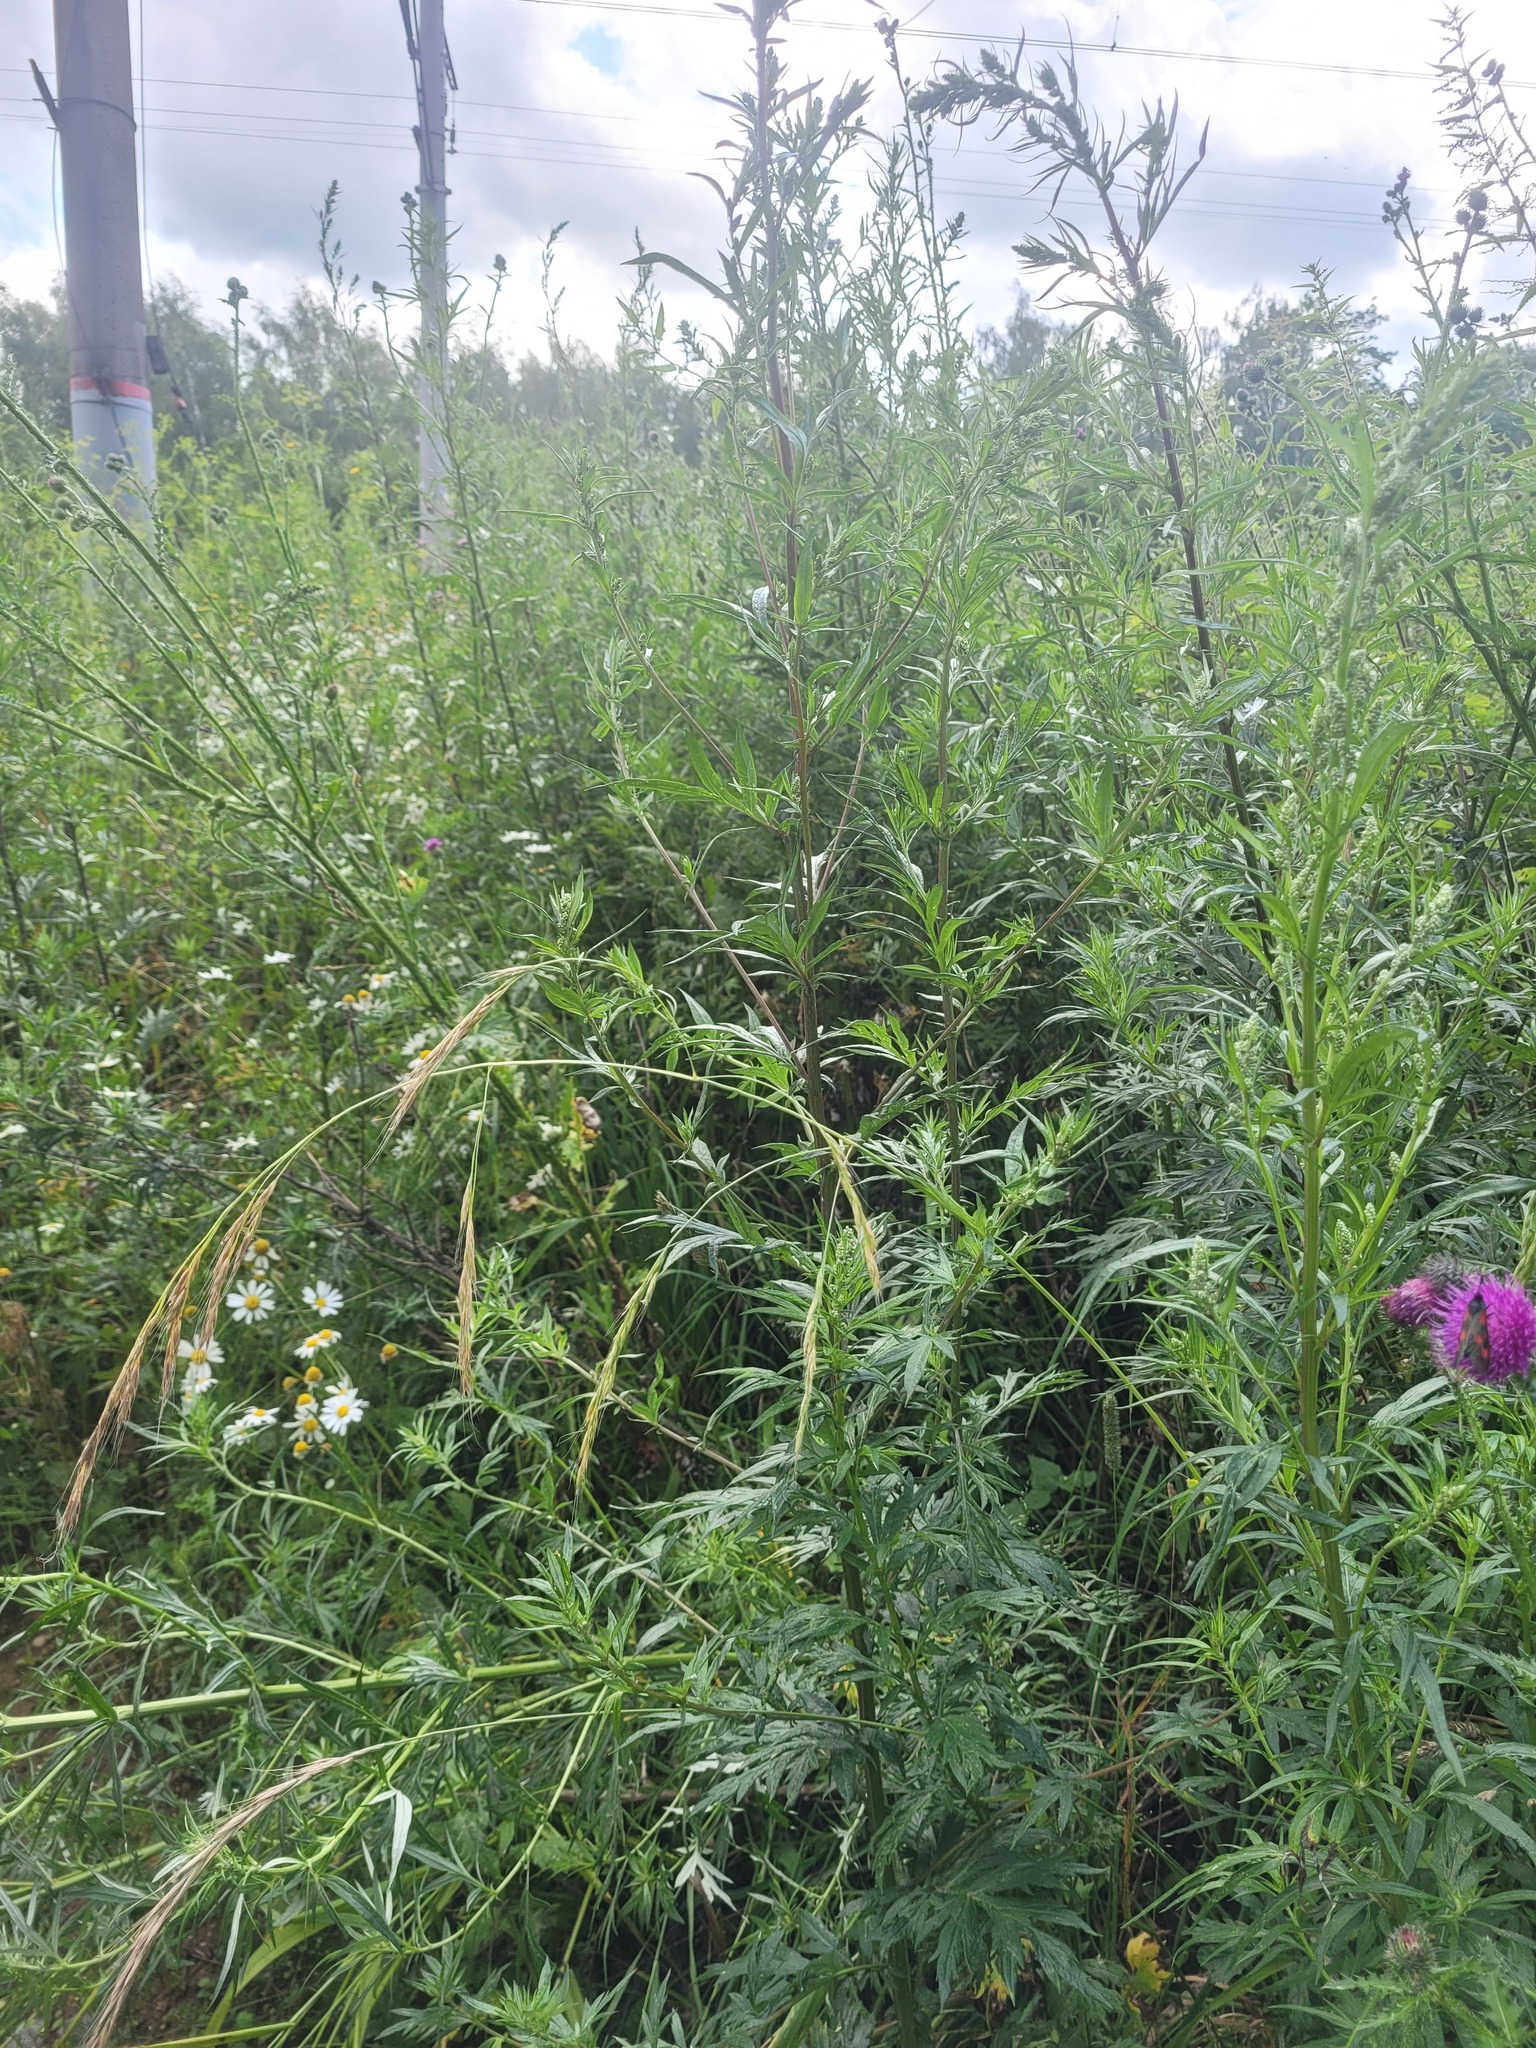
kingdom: Plantae
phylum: Tracheophyta
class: Liliopsida
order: Poales
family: Poaceae
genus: Lolium
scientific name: Lolium giganteum
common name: Giant fescue
